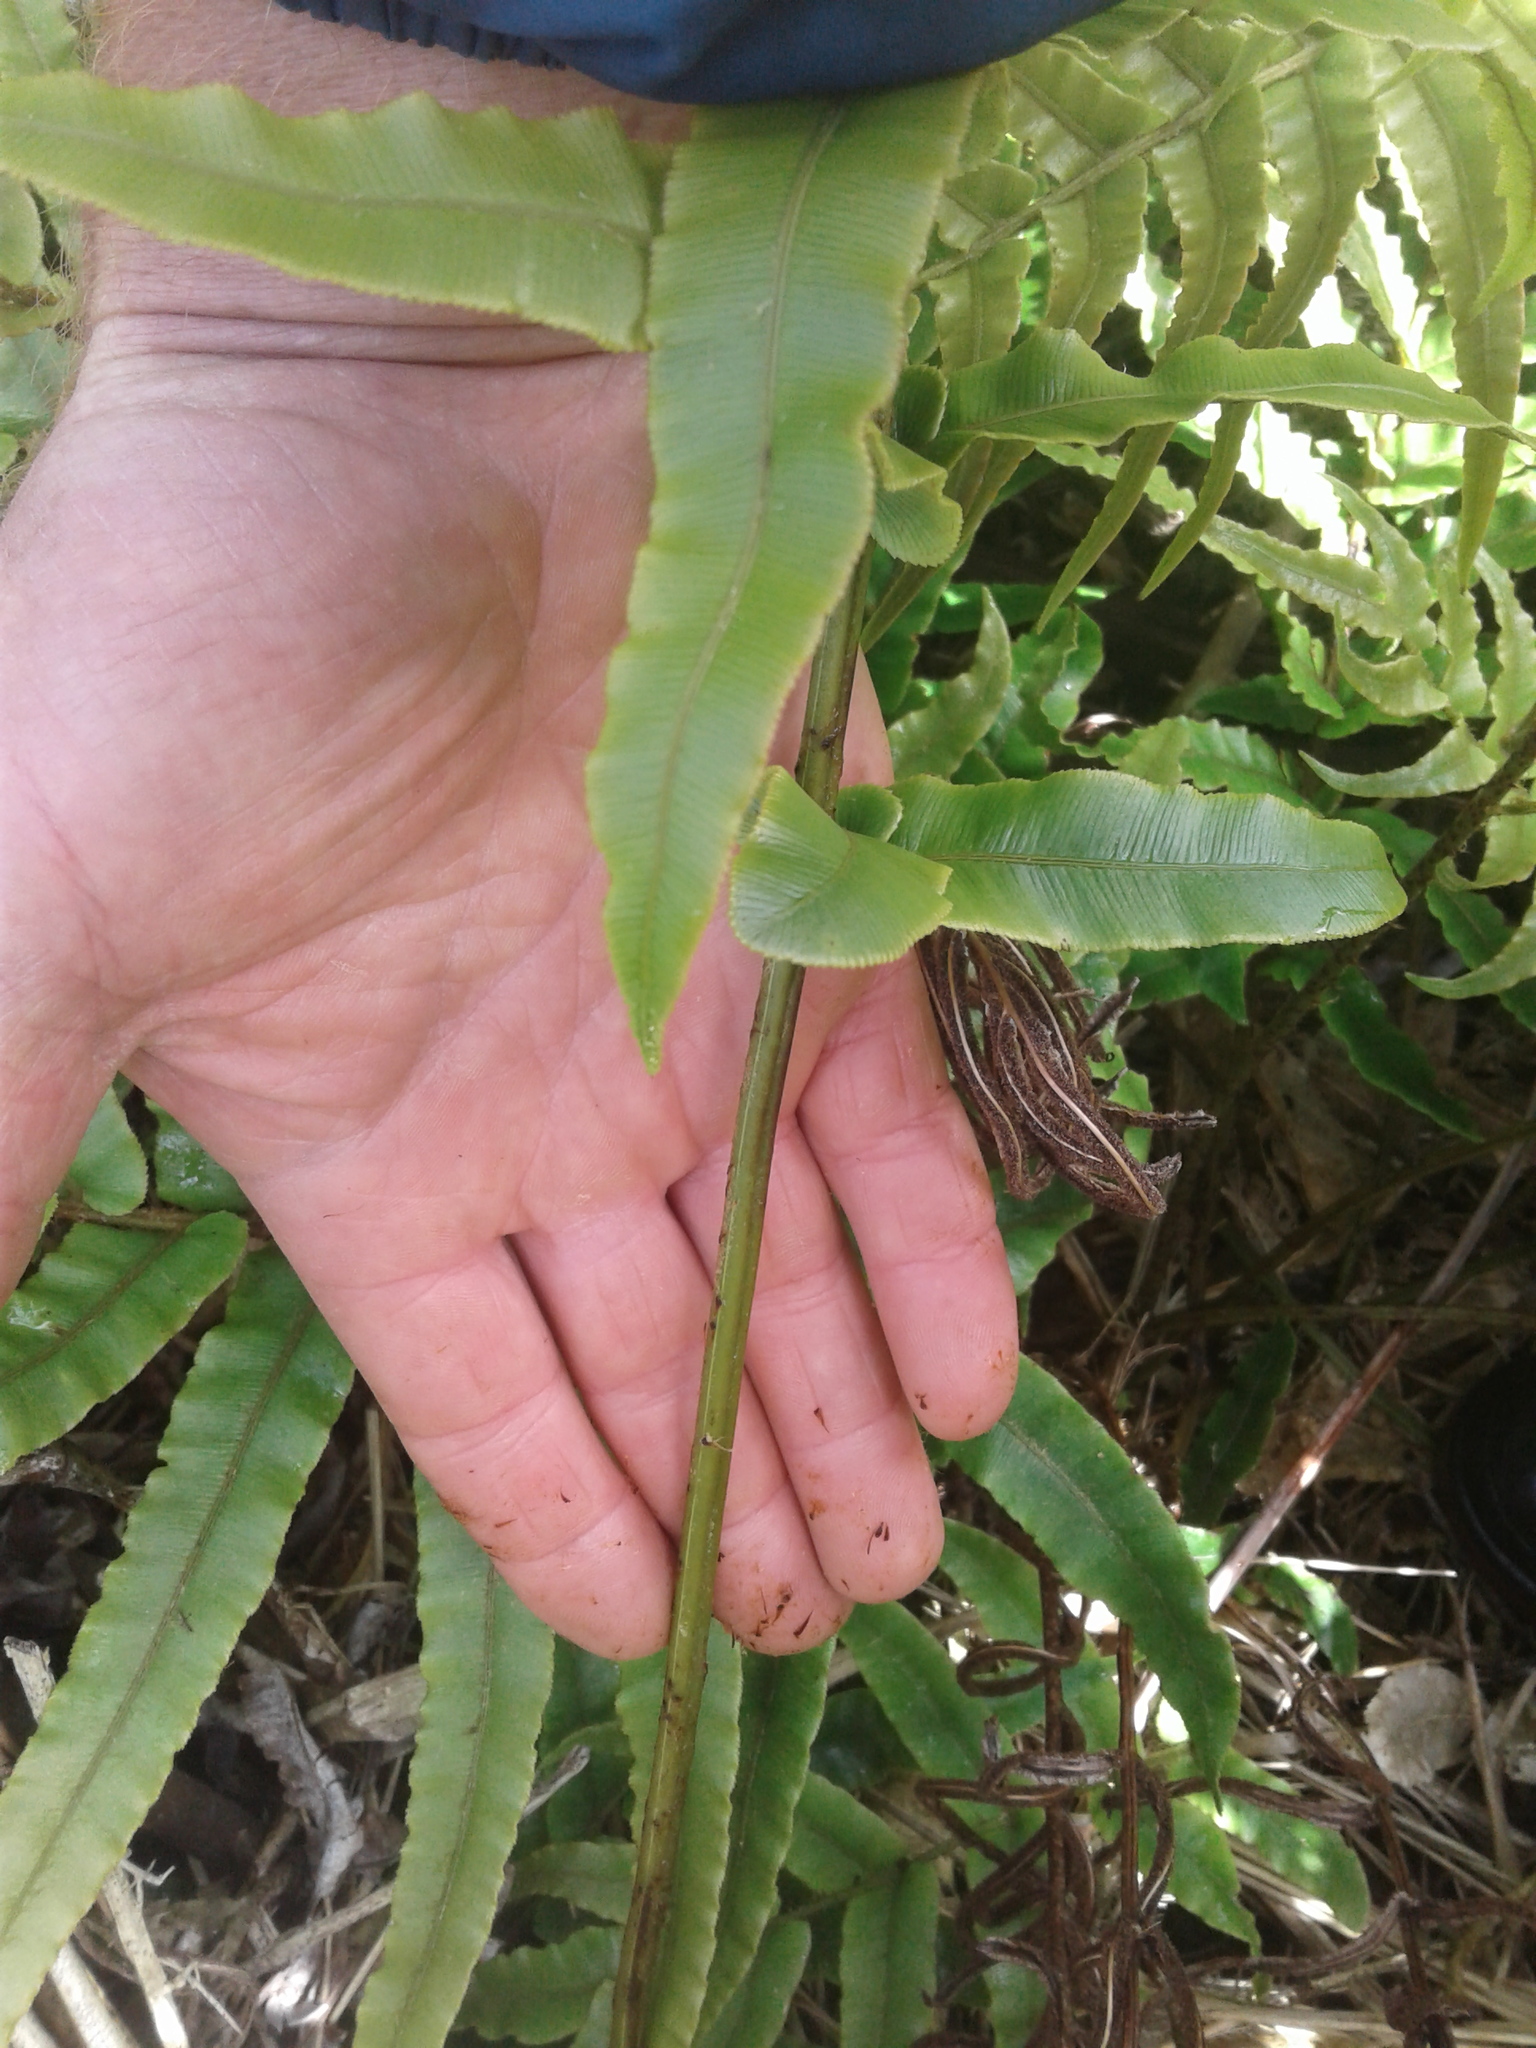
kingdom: Plantae
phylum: Tracheophyta
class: Polypodiopsida
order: Polypodiales
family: Blechnaceae
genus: Blechnum
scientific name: Blechnum
